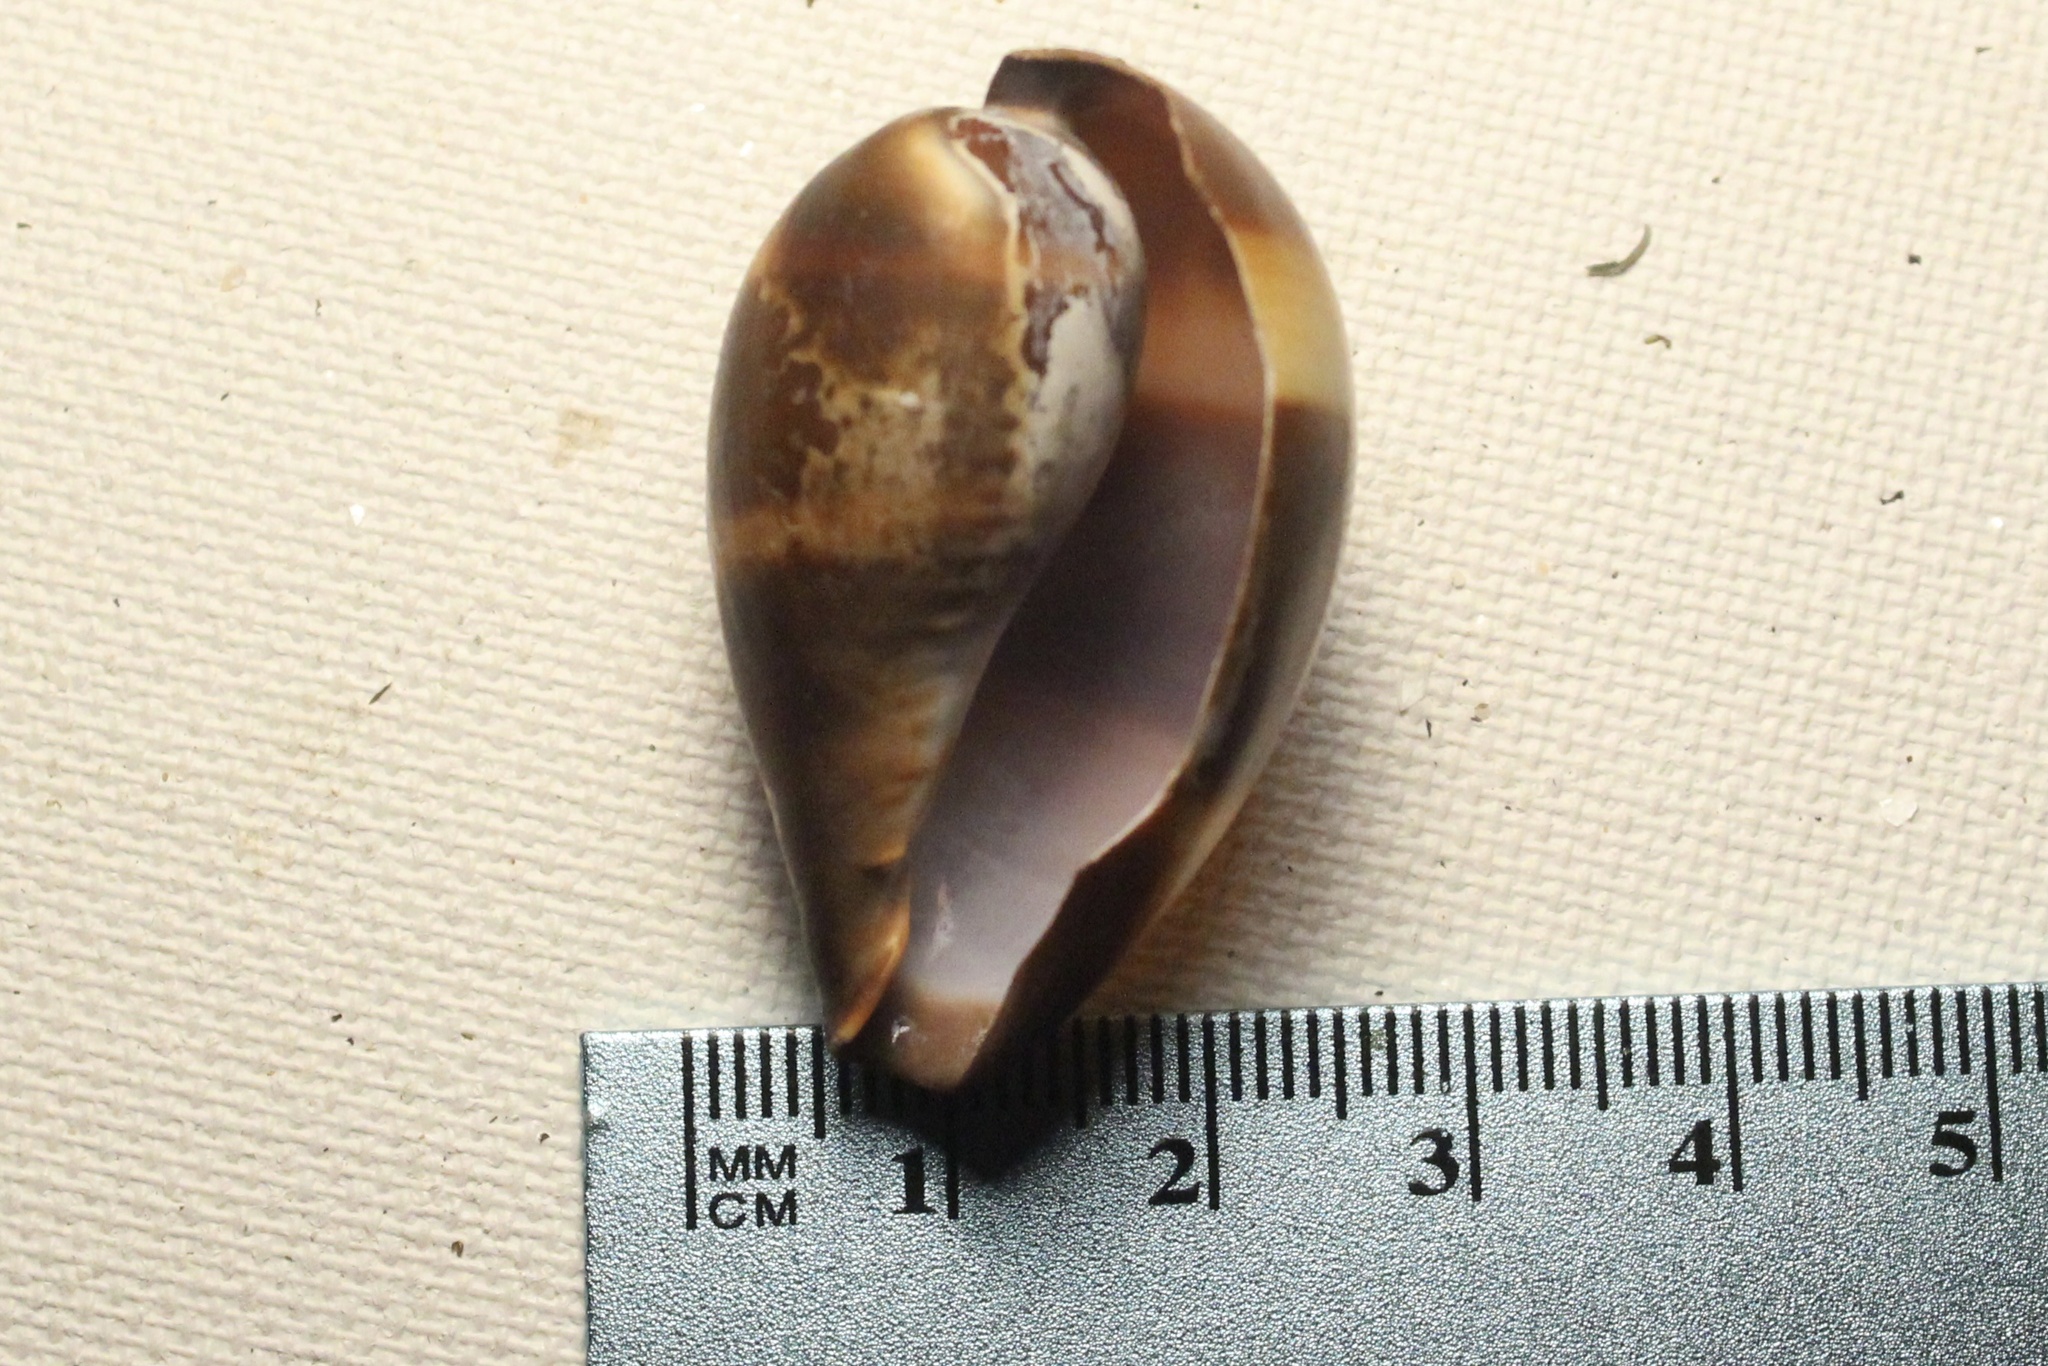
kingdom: Animalia
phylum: Mollusca
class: Gastropoda
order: Littorinimorpha
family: Cypraeidae
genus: Erronea
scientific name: Erronea adusta
